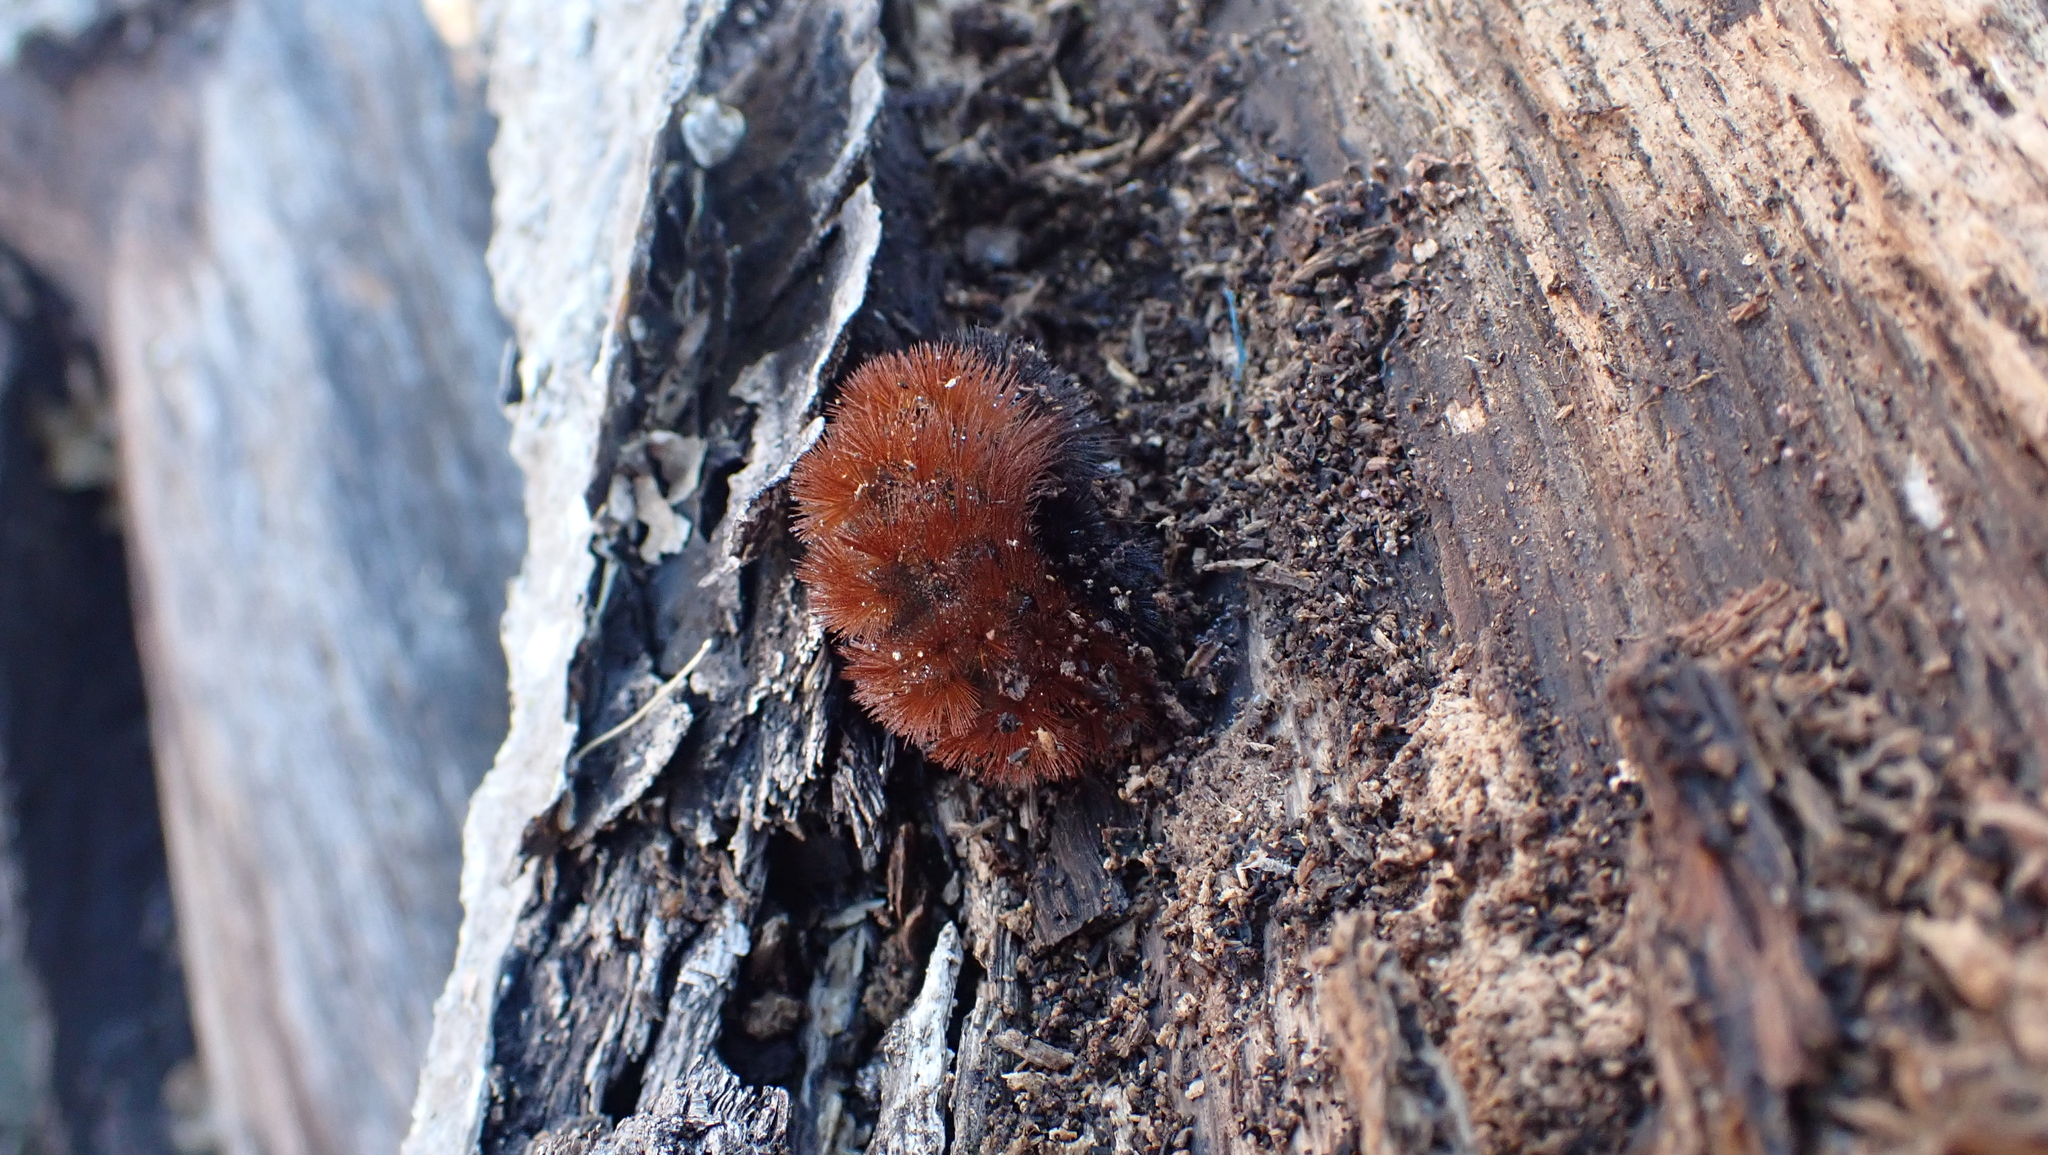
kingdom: Animalia
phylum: Arthropoda
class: Insecta
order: Lepidoptera
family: Erebidae
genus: Pyrrharctia
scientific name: Pyrrharctia isabella
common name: Isabella tiger moth
